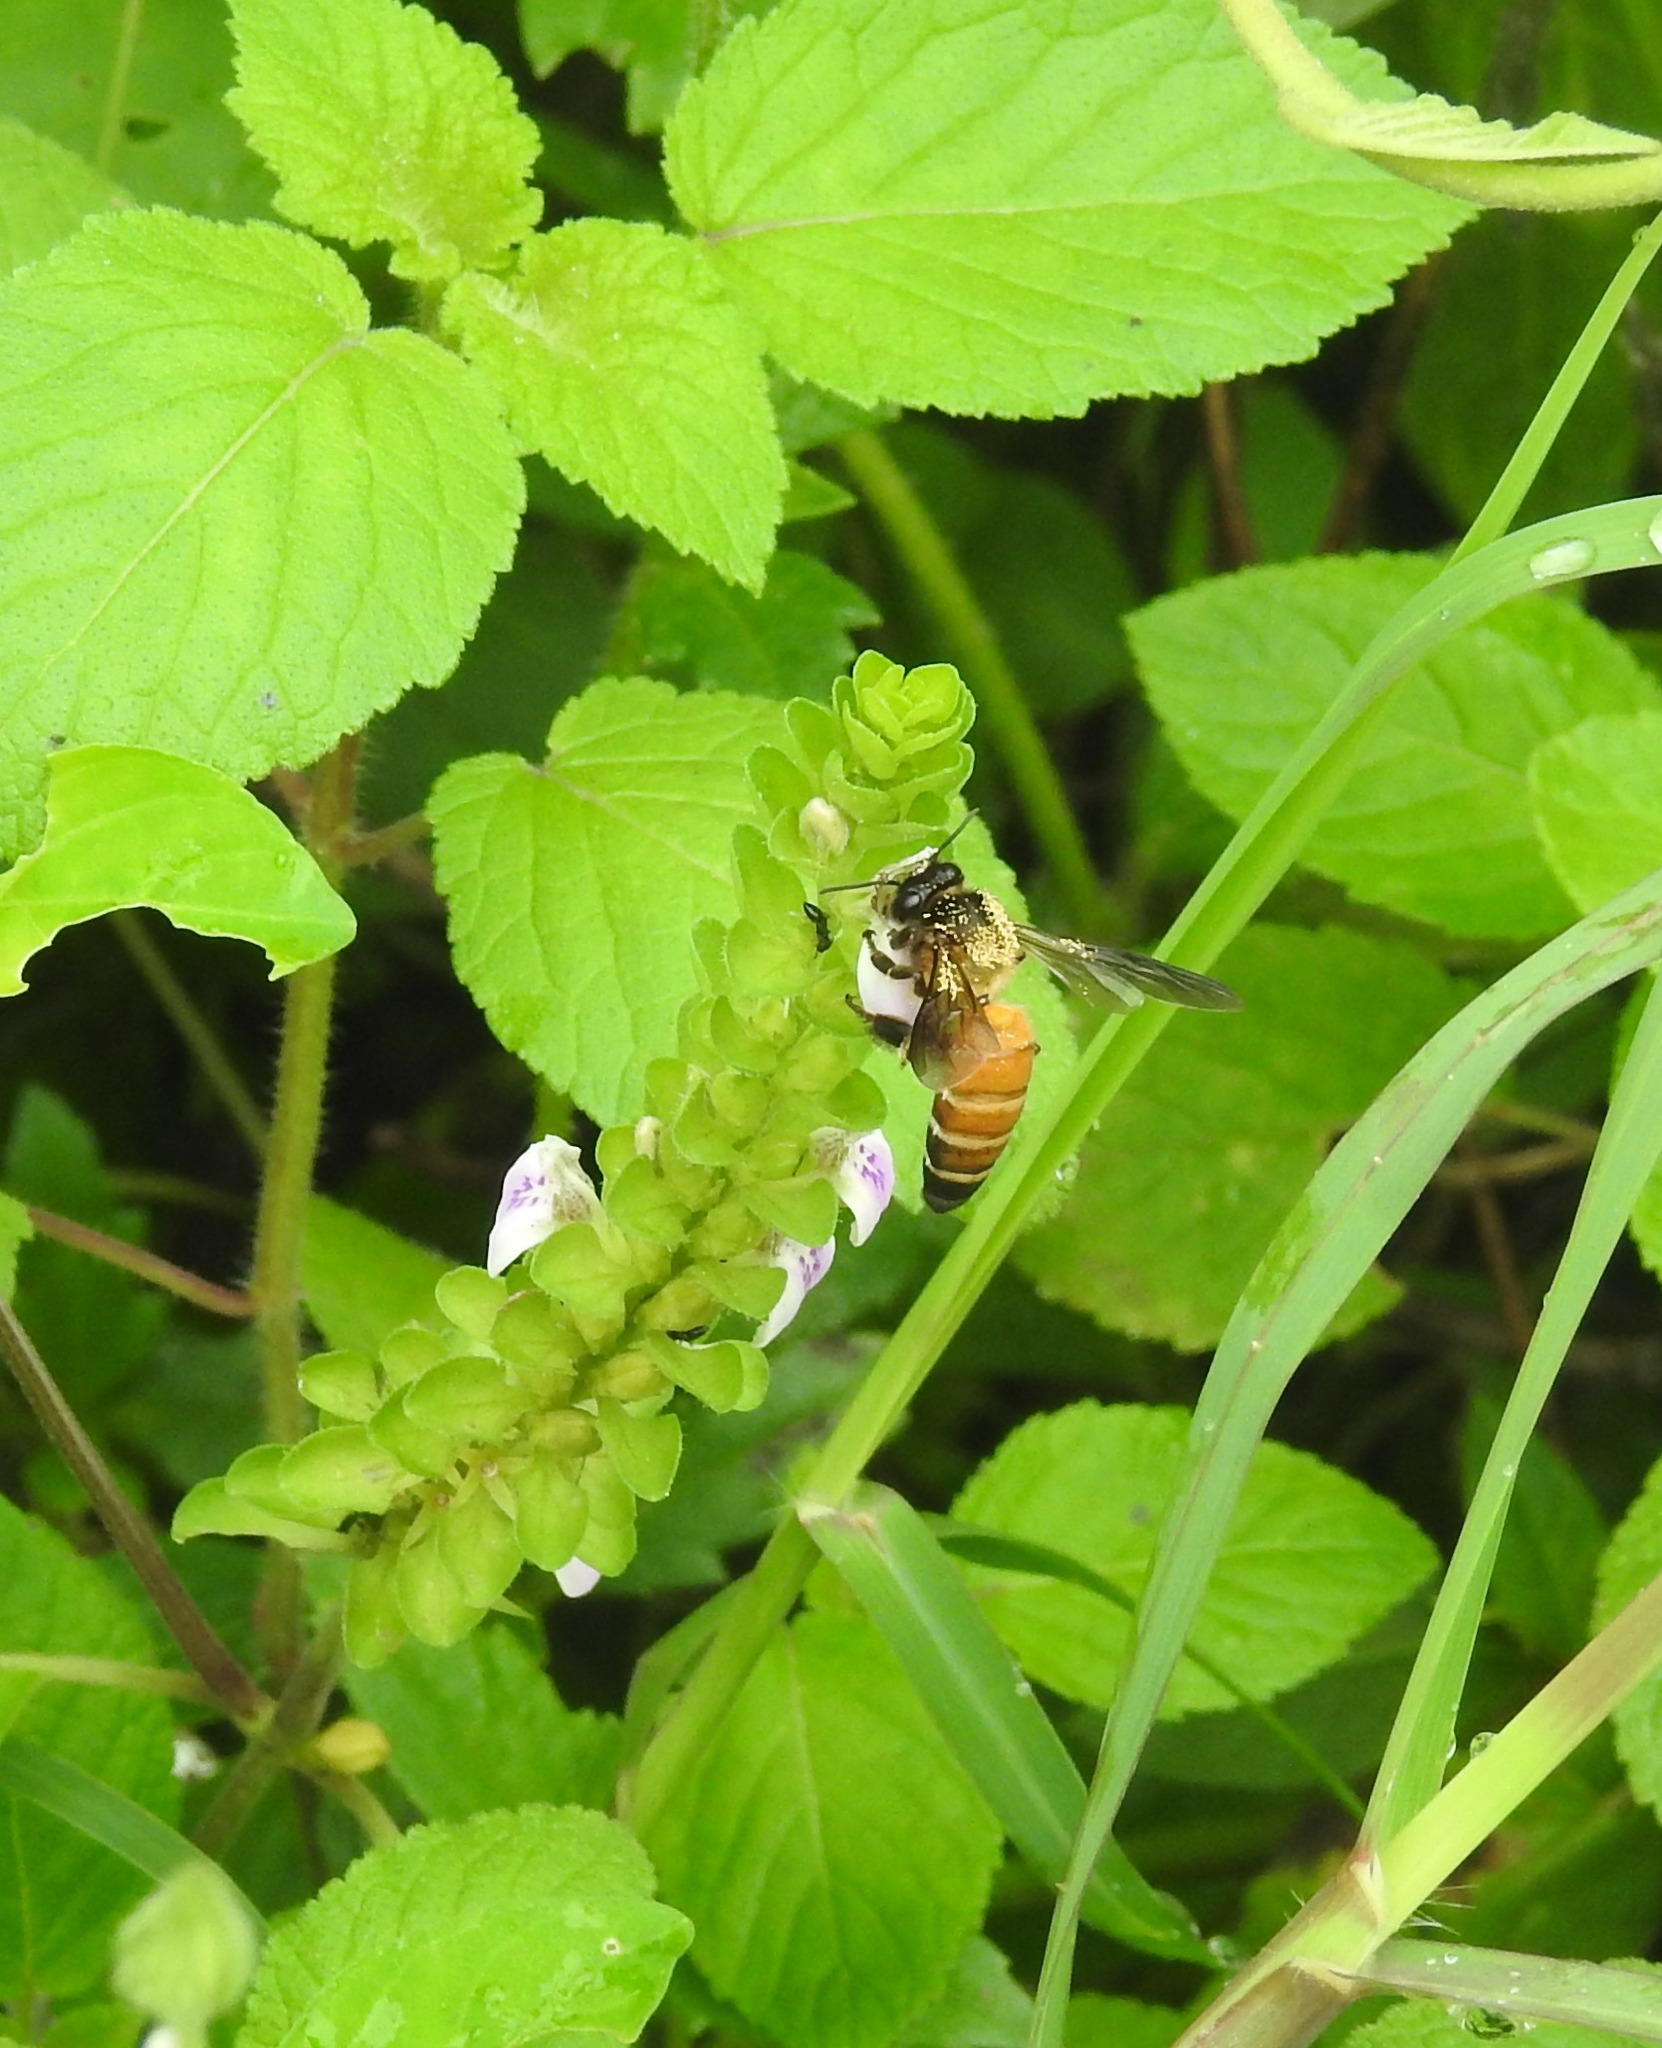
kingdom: Animalia
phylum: Arthropoda
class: Insecta
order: Hymenoptera
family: Apidae
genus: Apis
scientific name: Apis dorsata
